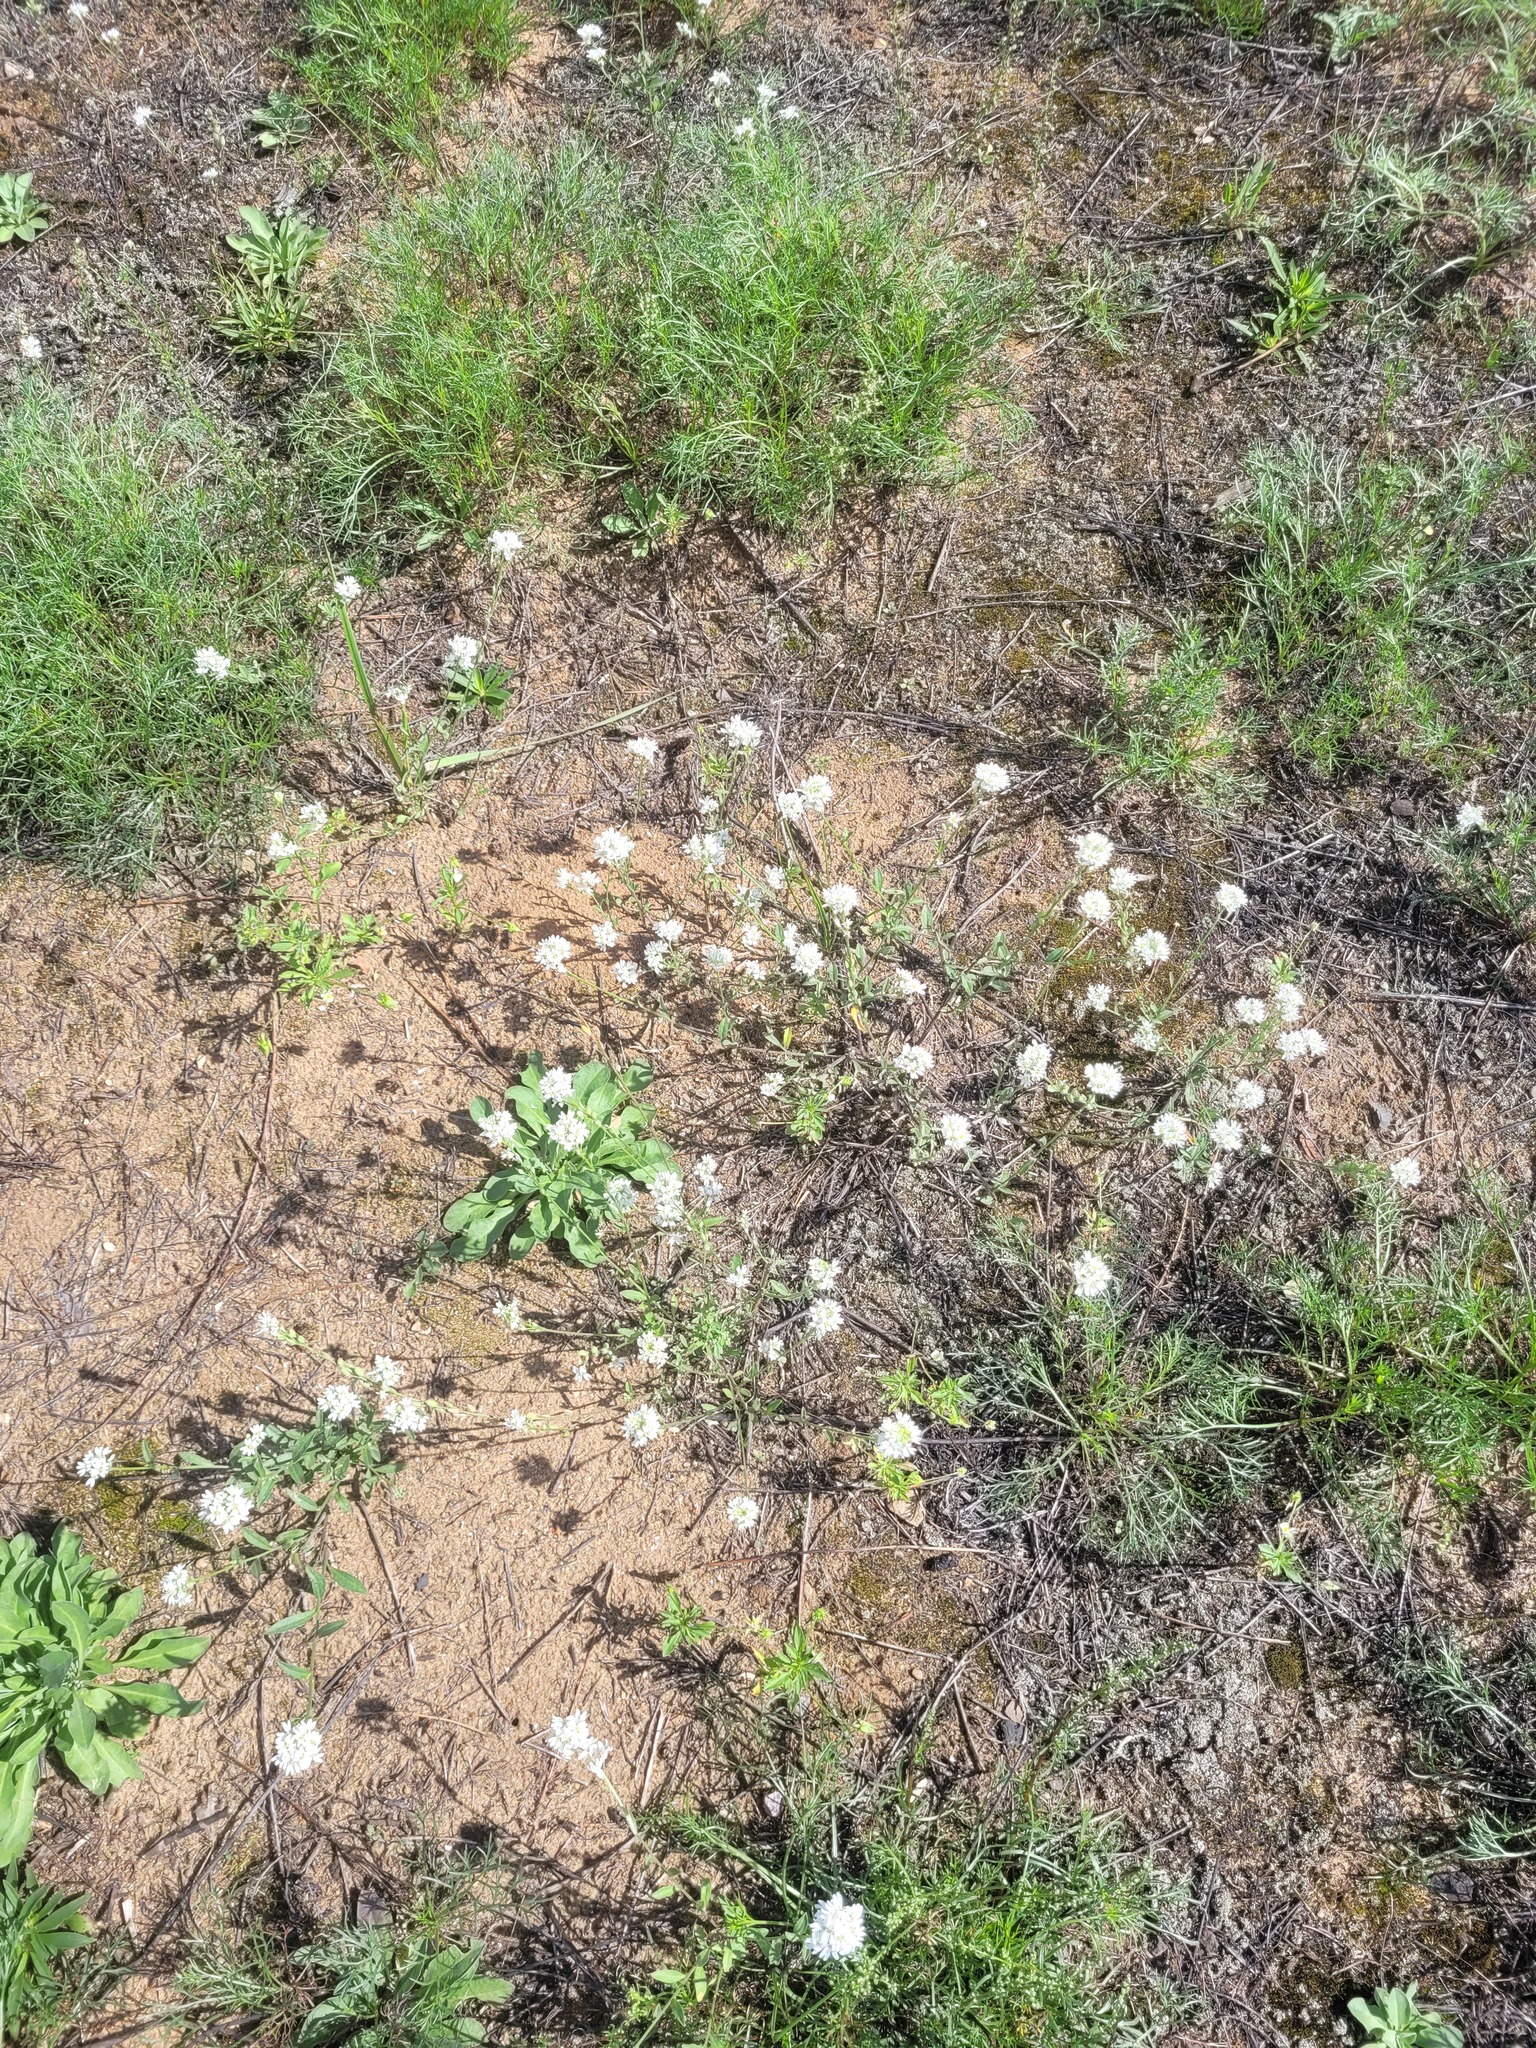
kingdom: Plantae
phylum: Tracheophyta
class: Magnoliopsida
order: Brassicales
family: Brassicaceae
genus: Berteroa
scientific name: Berteroa incana
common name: Hoary alison
